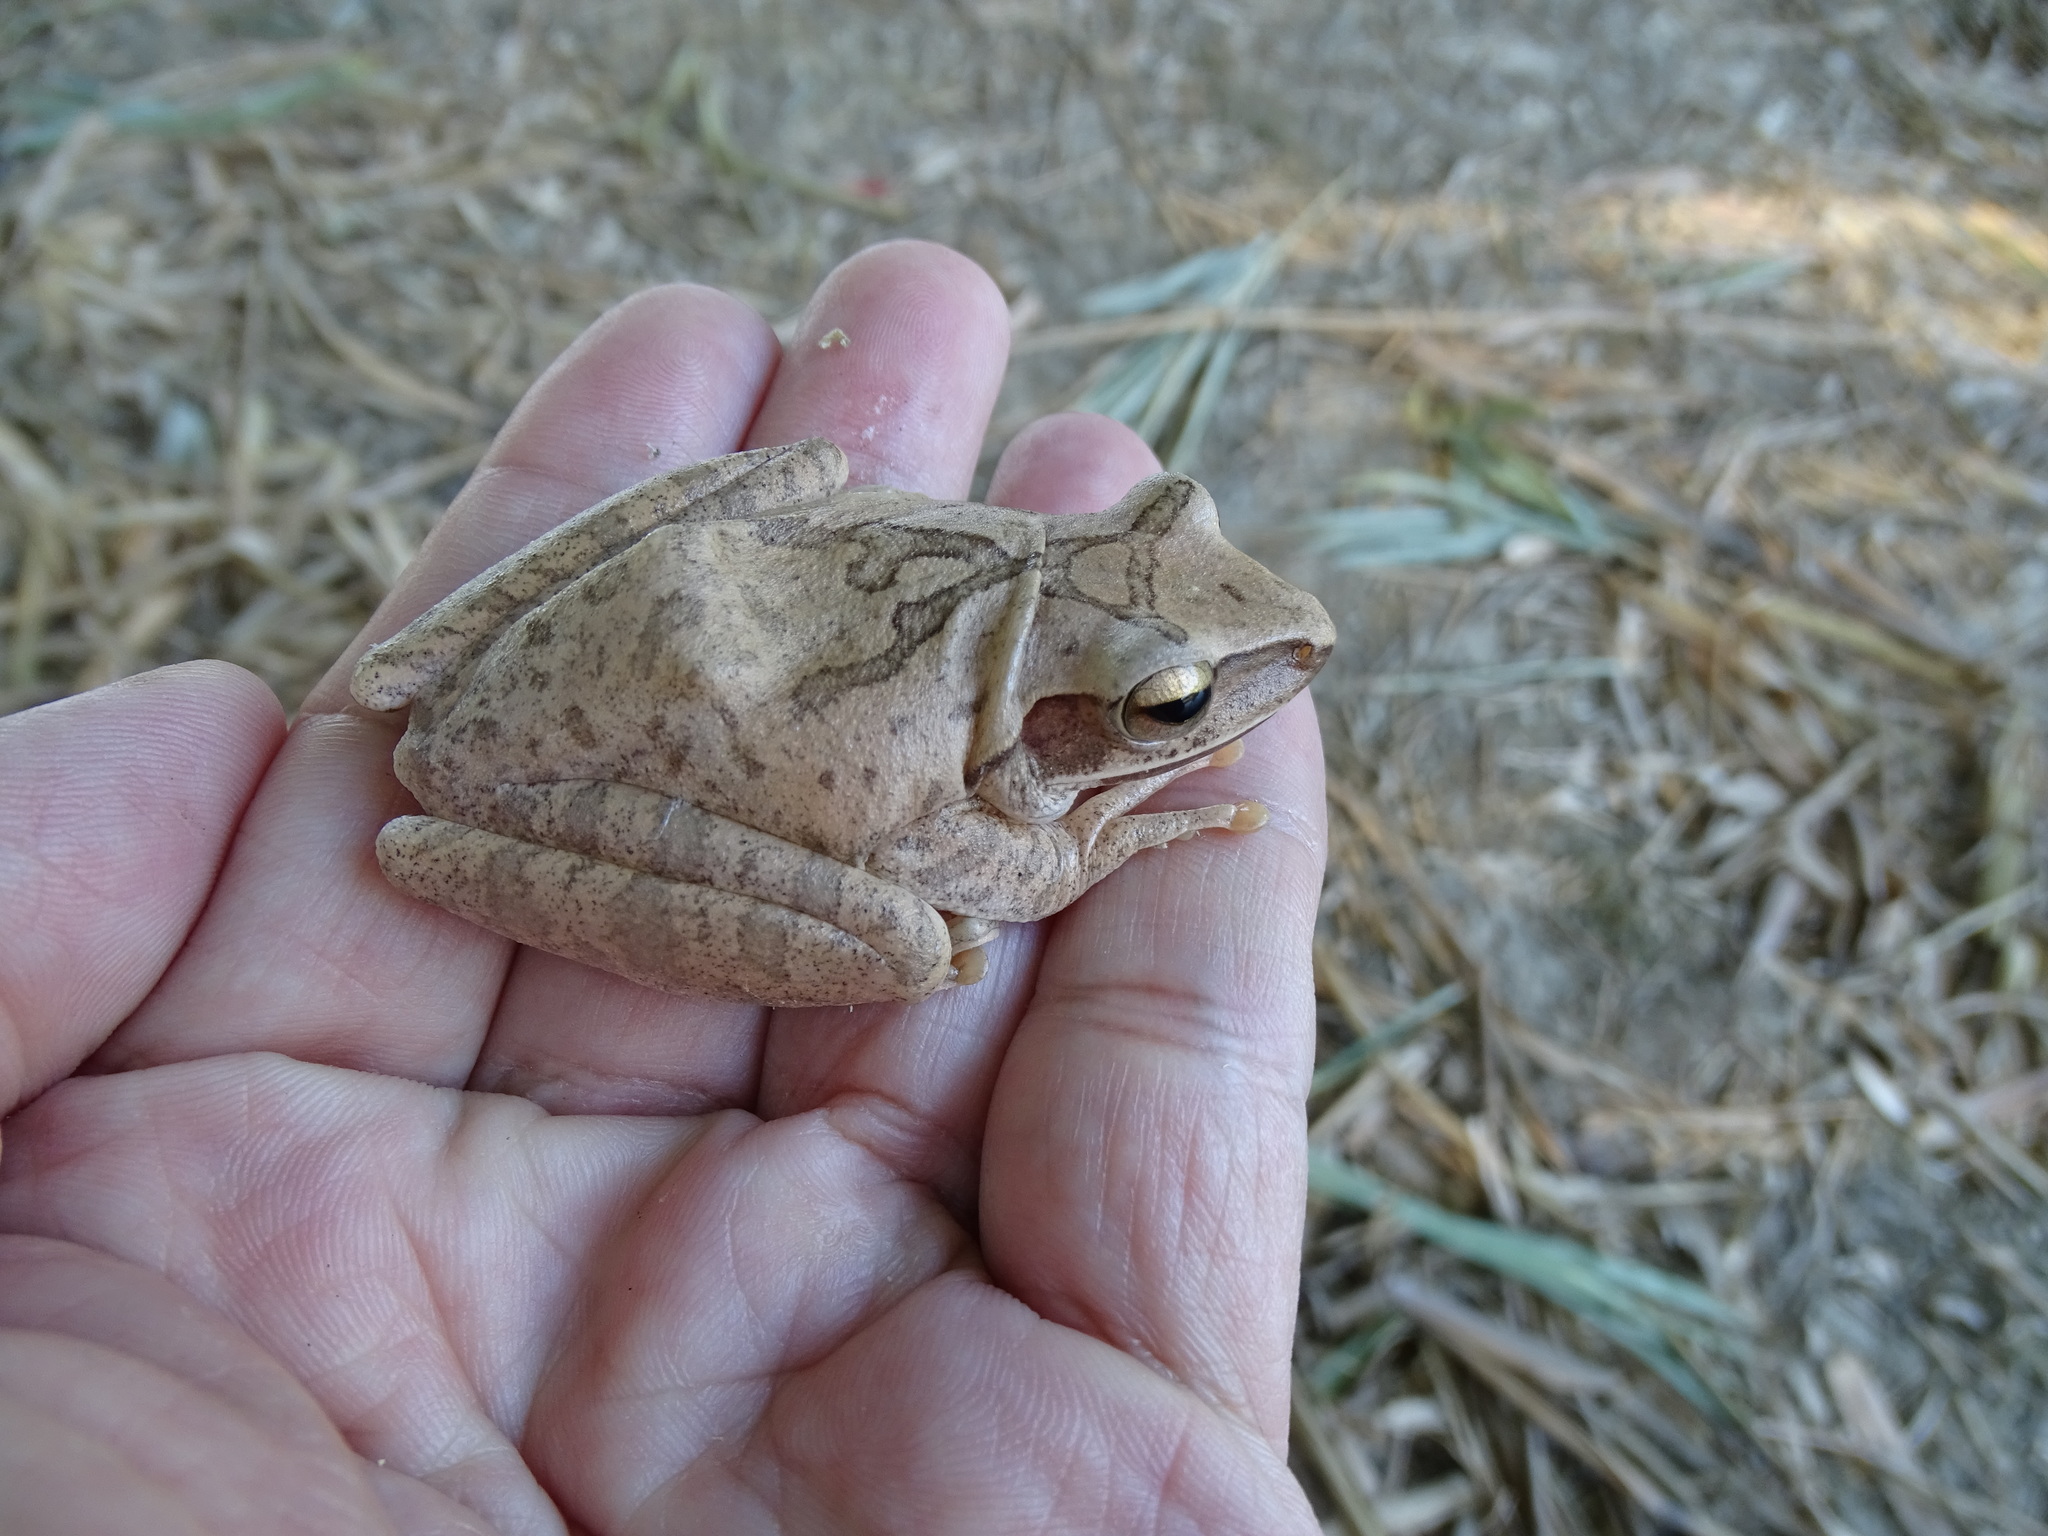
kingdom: Animalia
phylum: Chordata
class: Amphibia
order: Anura
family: Rhacophoridae
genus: Polypedates
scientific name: Polypedates megacephalus
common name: Hong kong whipping frog
